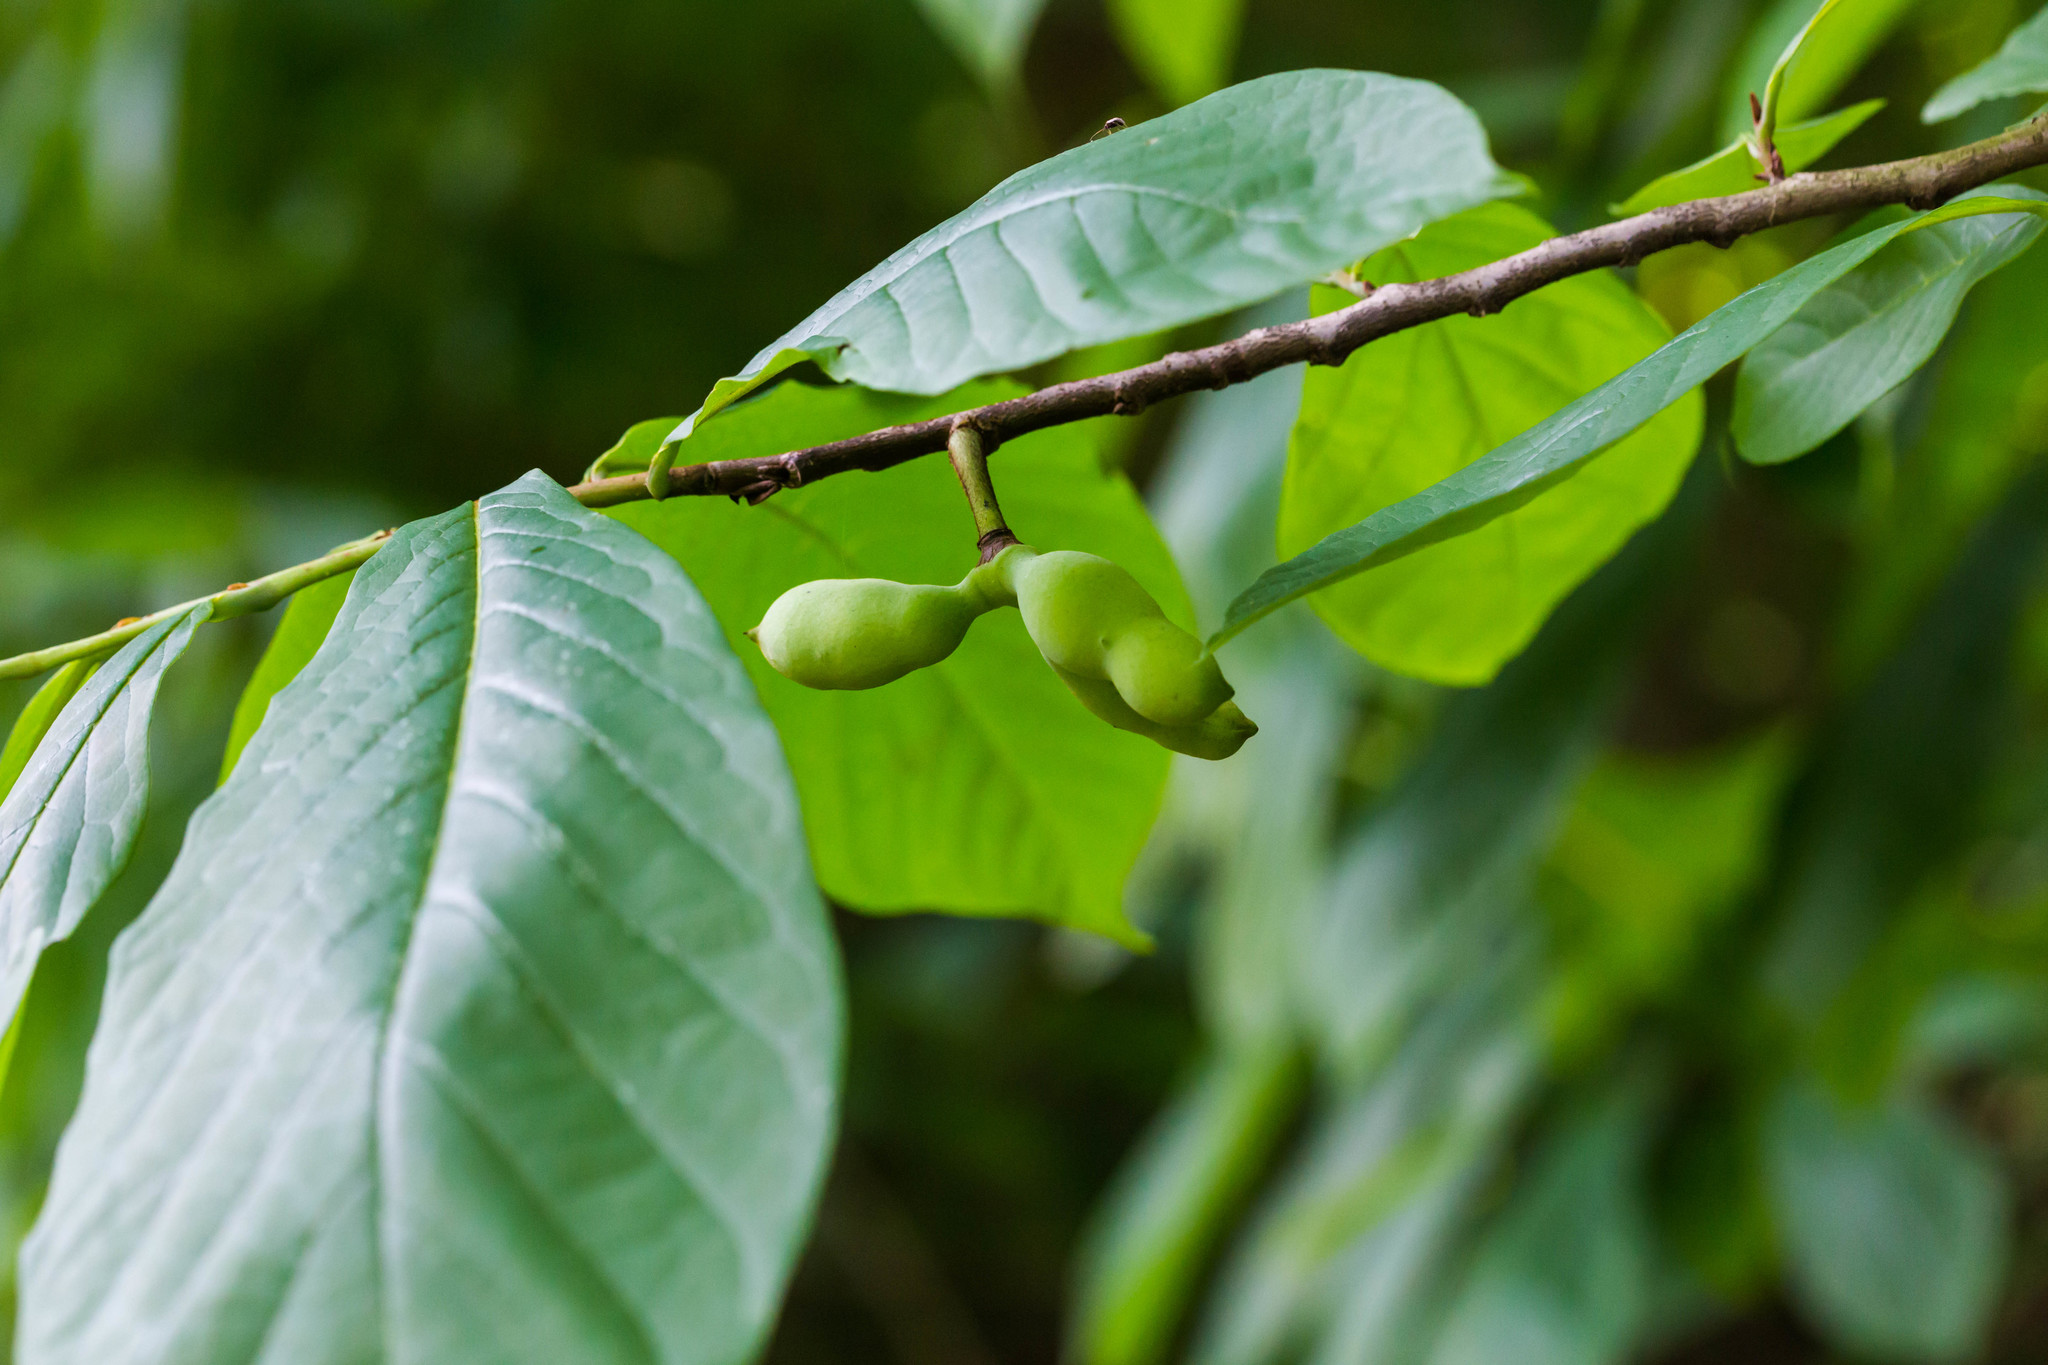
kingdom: Plantae
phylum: Tracheophyta
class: Magnoliopsida
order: Magnoliales
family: Annonaceae
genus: Asimina
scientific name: Asimina triloba
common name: Dog-banana
